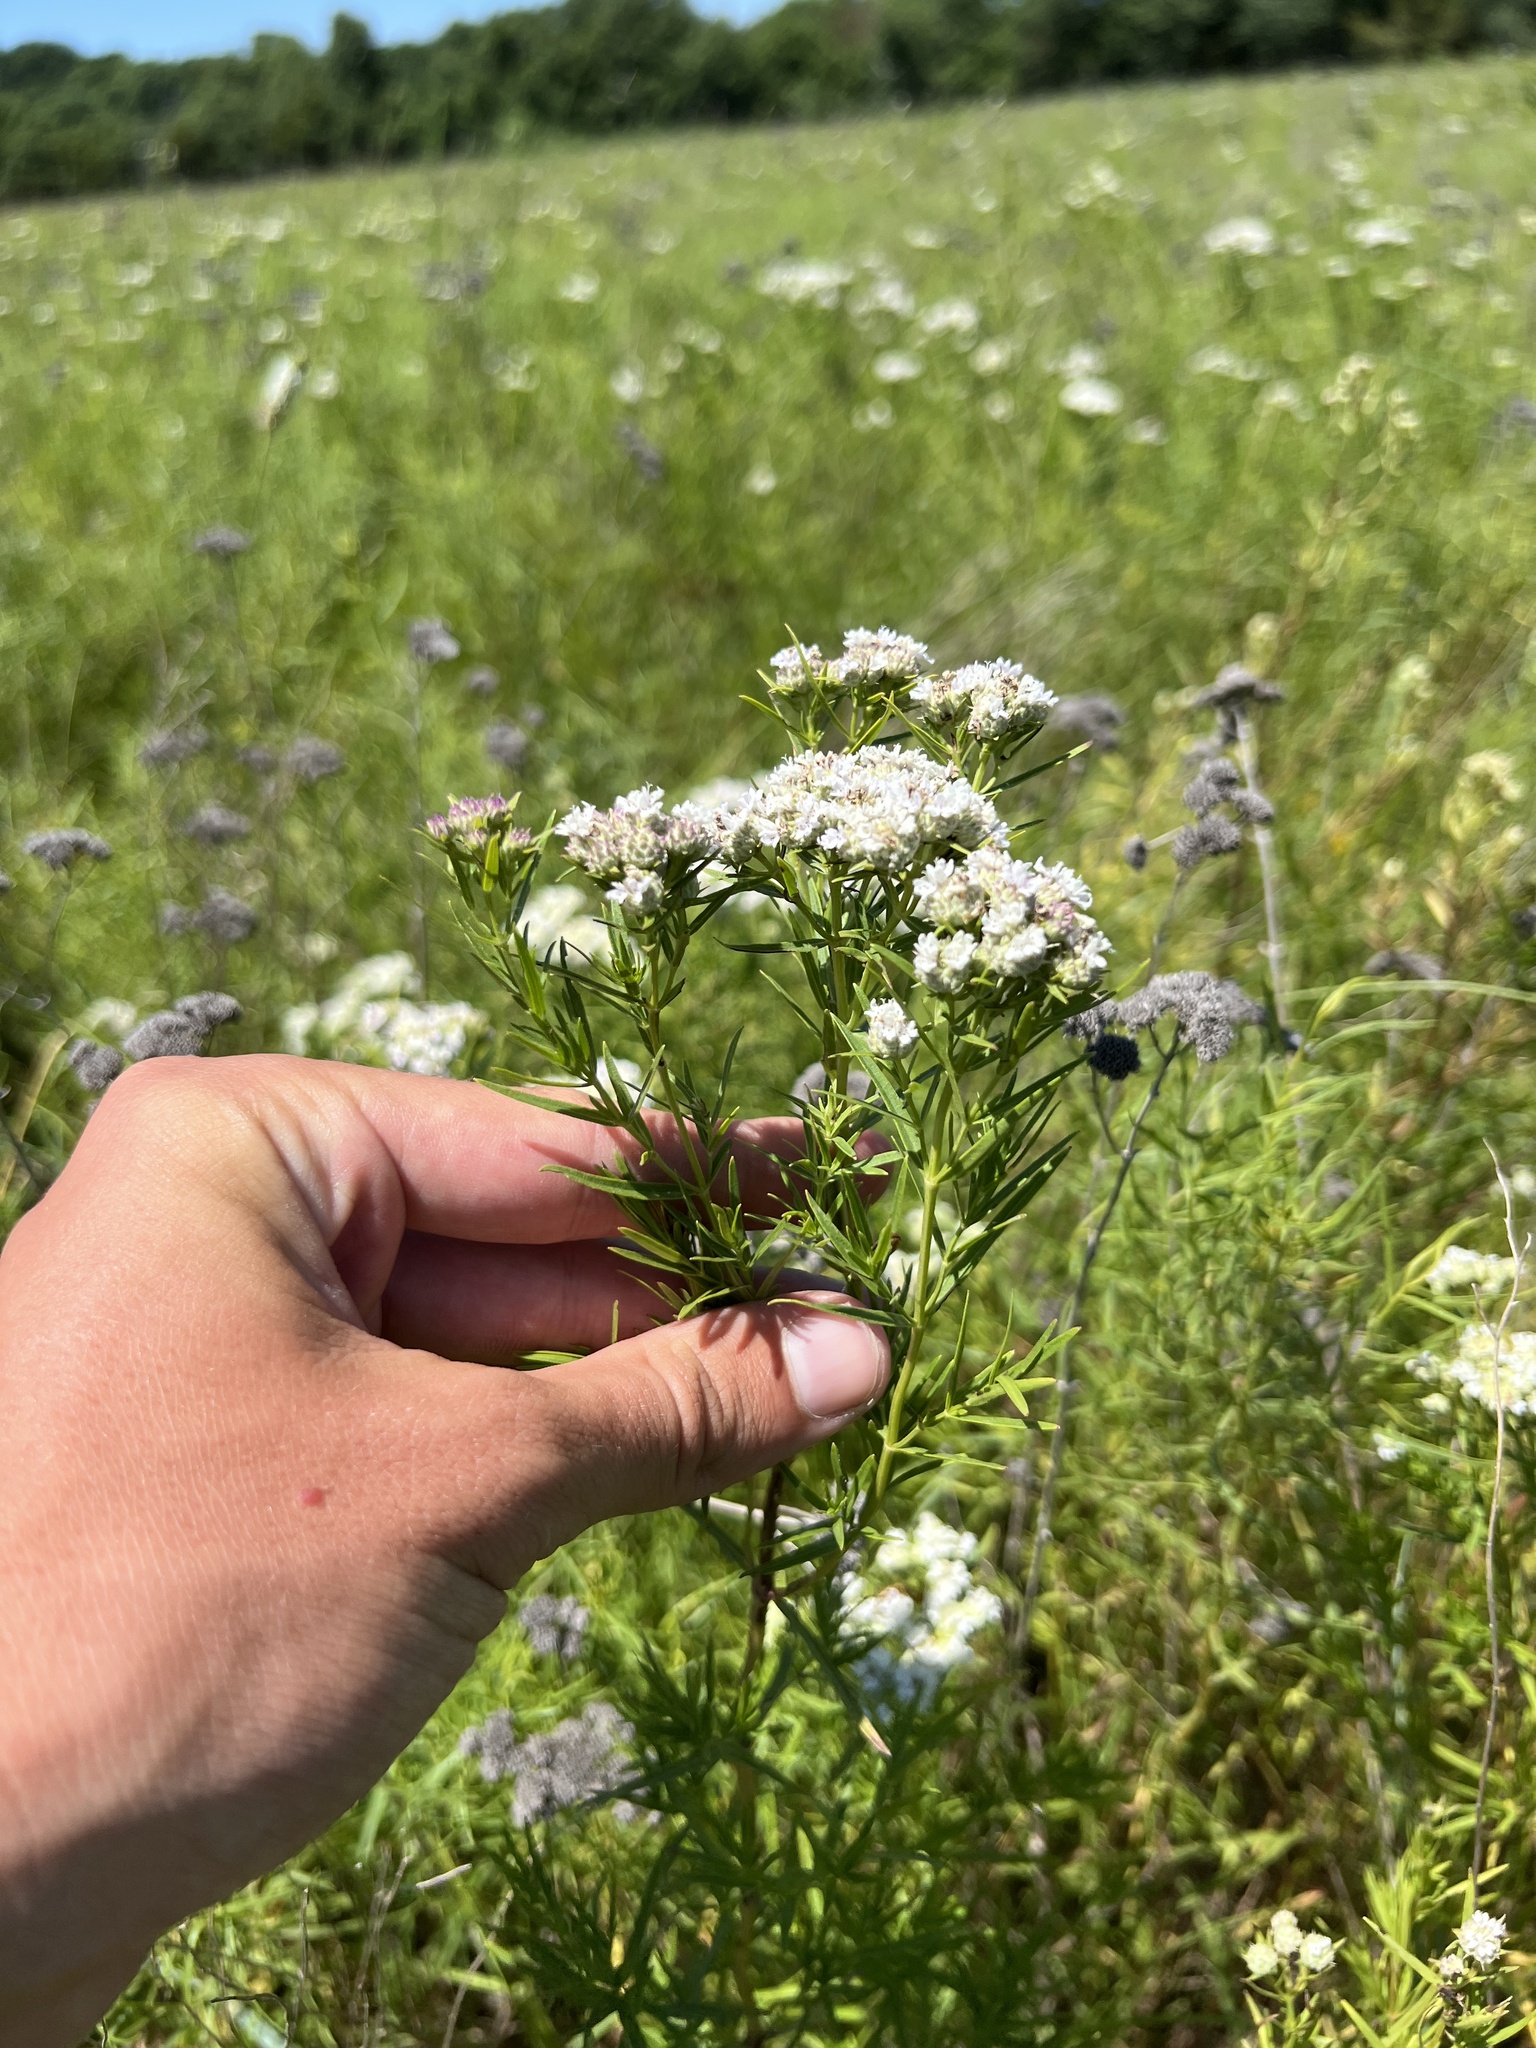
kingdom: Plantae
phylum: Tracheophyta
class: Magnoliopsida
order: Lamiales
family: Lamiaceae
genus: Pycnanthemum
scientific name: Pycnanthemum tenuifolium
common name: Narrow-leaf mountain-mint
